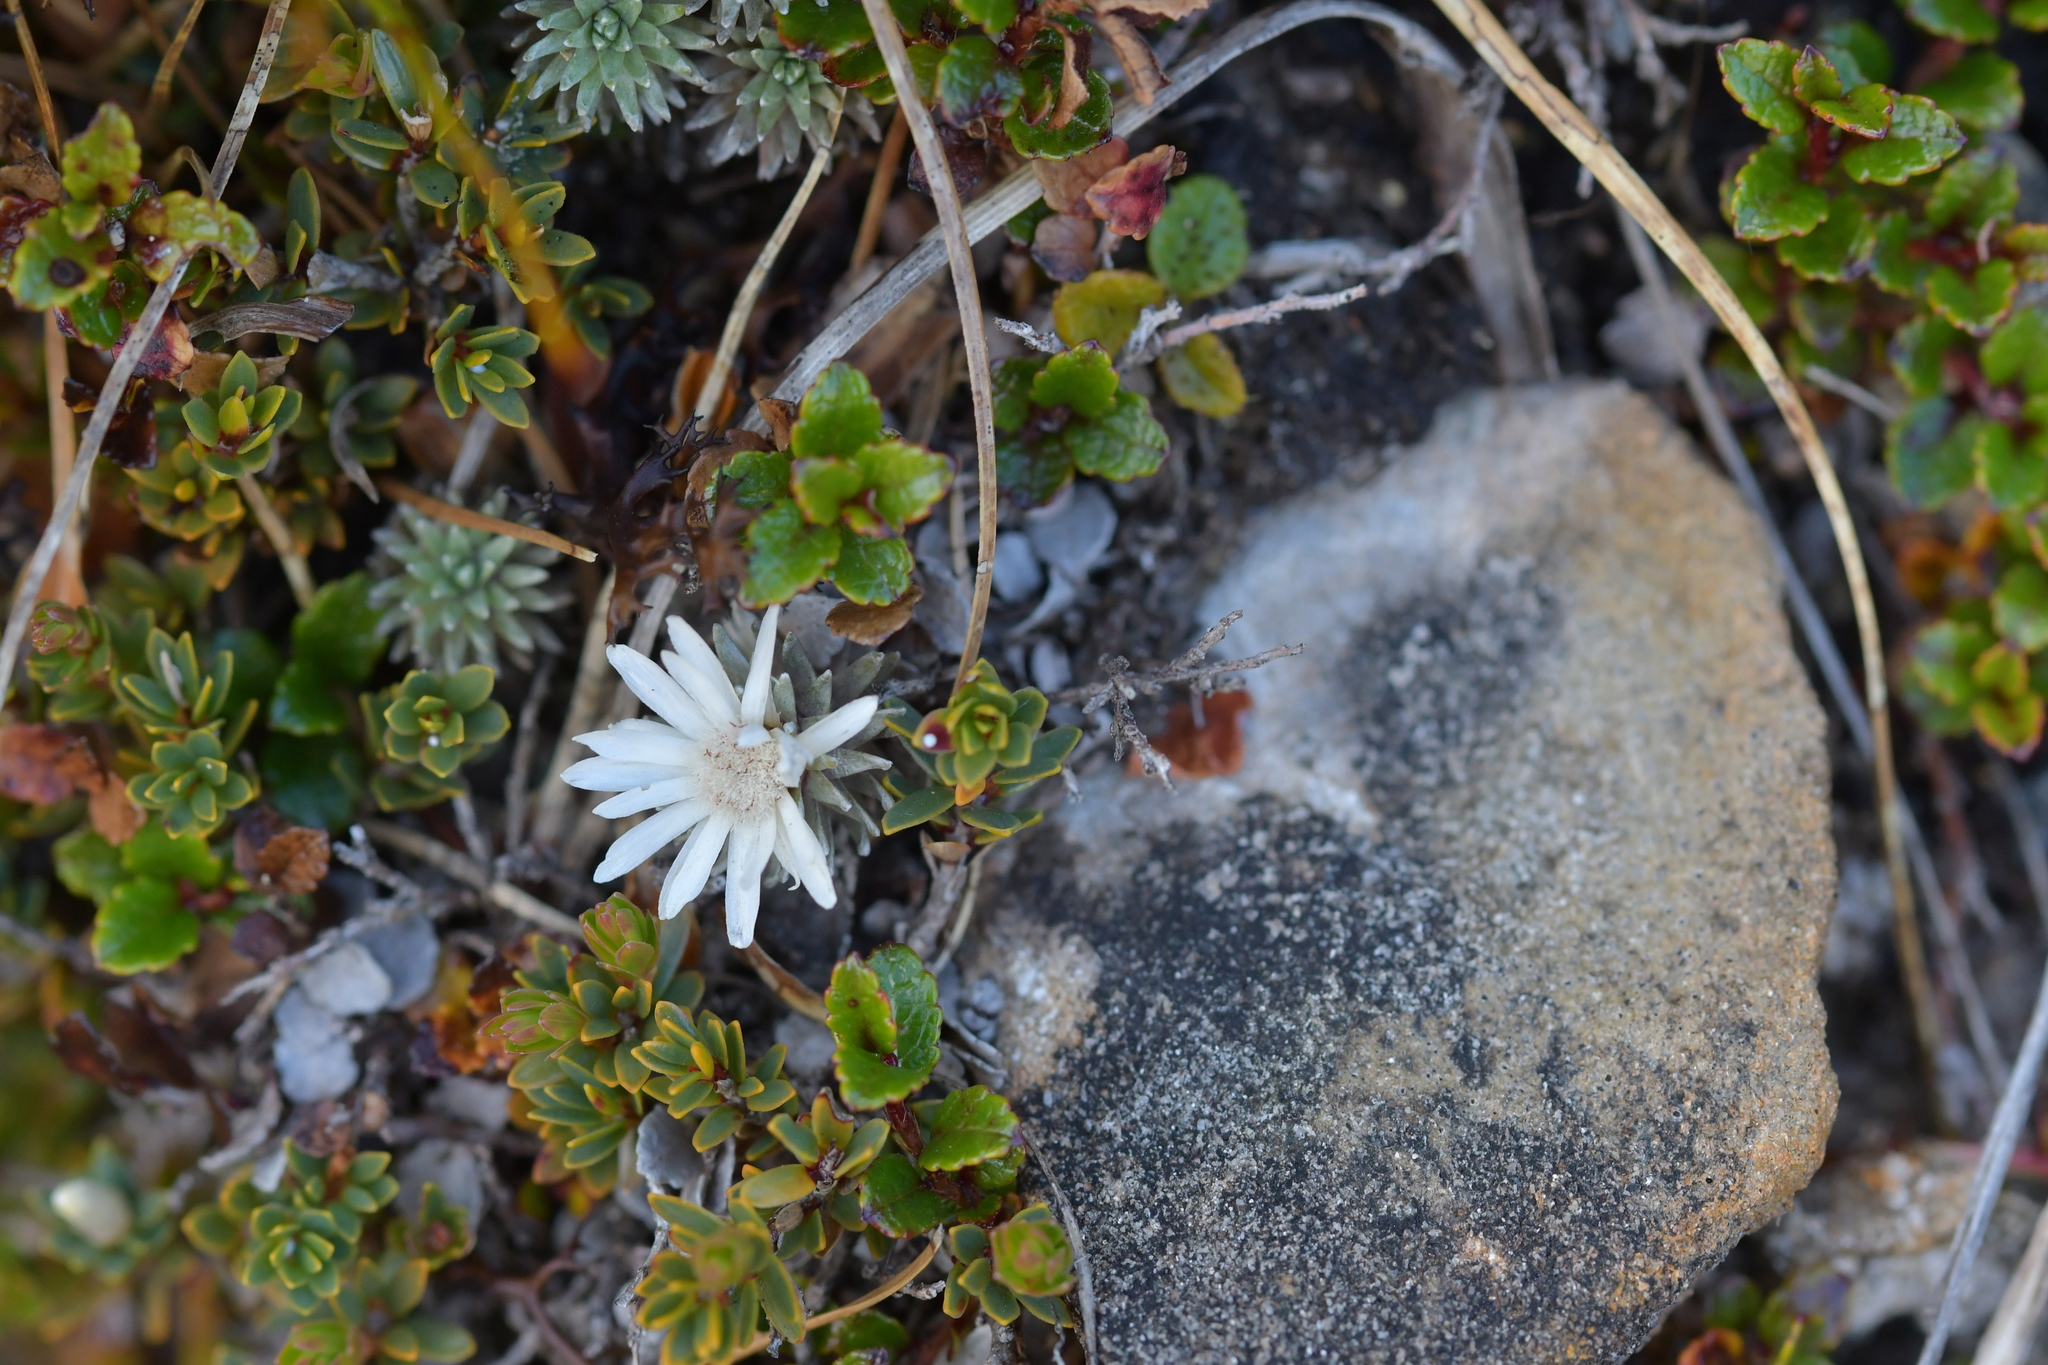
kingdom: Plantae
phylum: Tracheophyta
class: Magnoliopsida
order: Asterales
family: Asteraceae
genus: Raoulia
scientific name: Raoulia grandiflora
